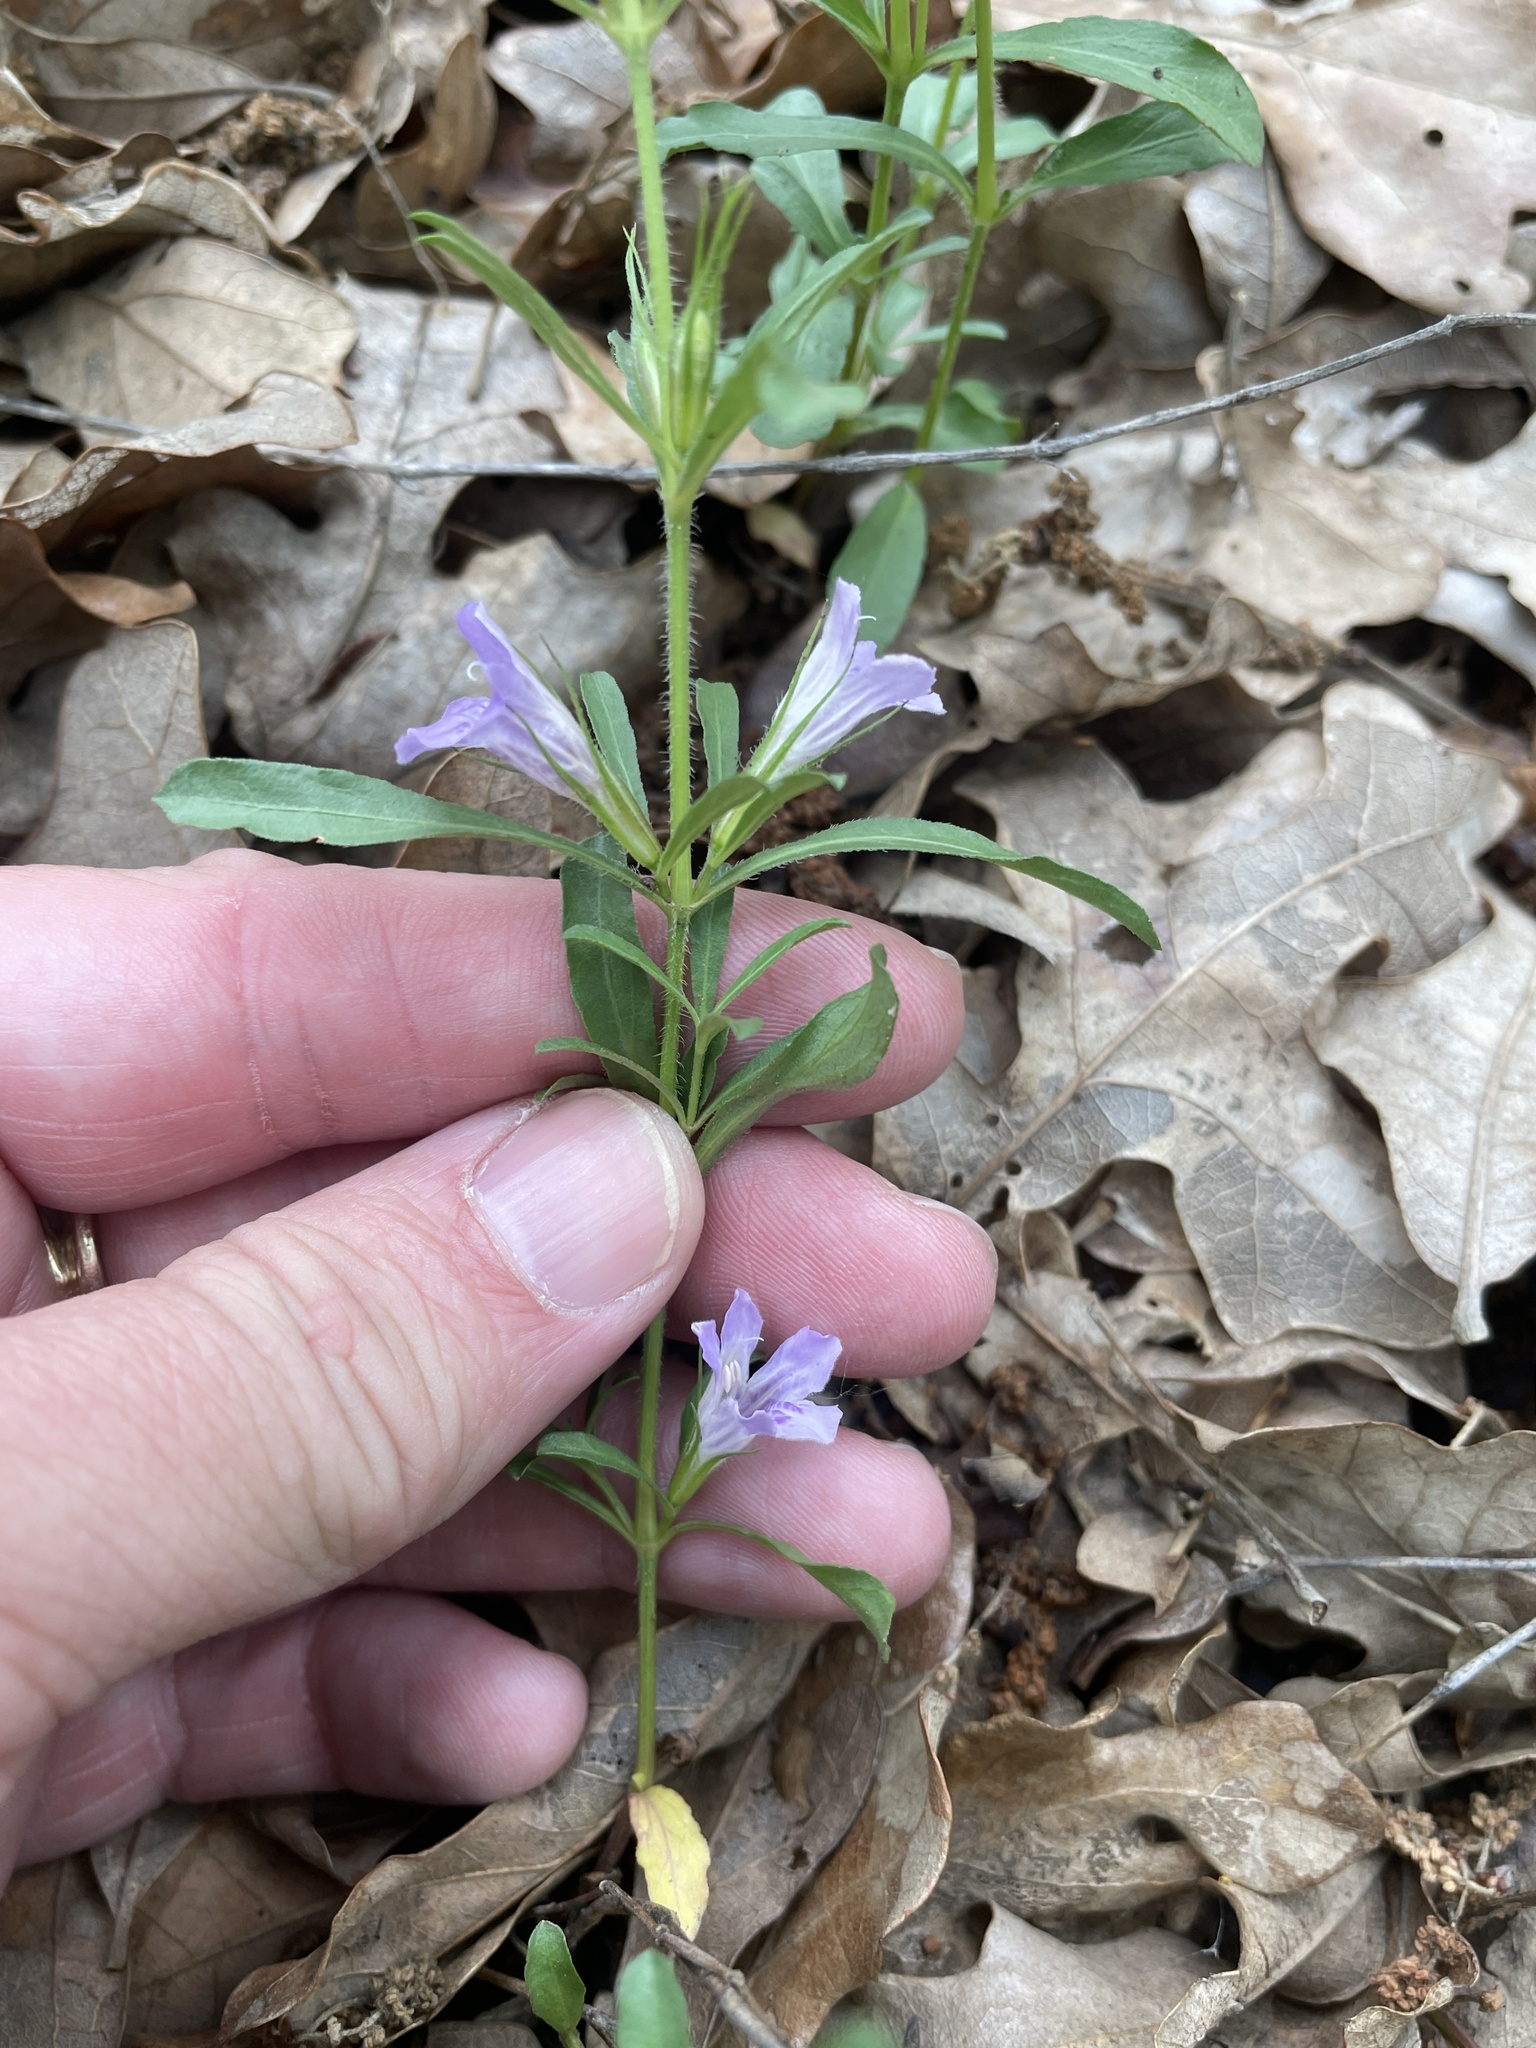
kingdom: Plantae
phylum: Tracheophyta
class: Magnoliopsida
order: Lamiales
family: Acanthaceae
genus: Dyschoriste
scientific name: Dyschoriste linearis
